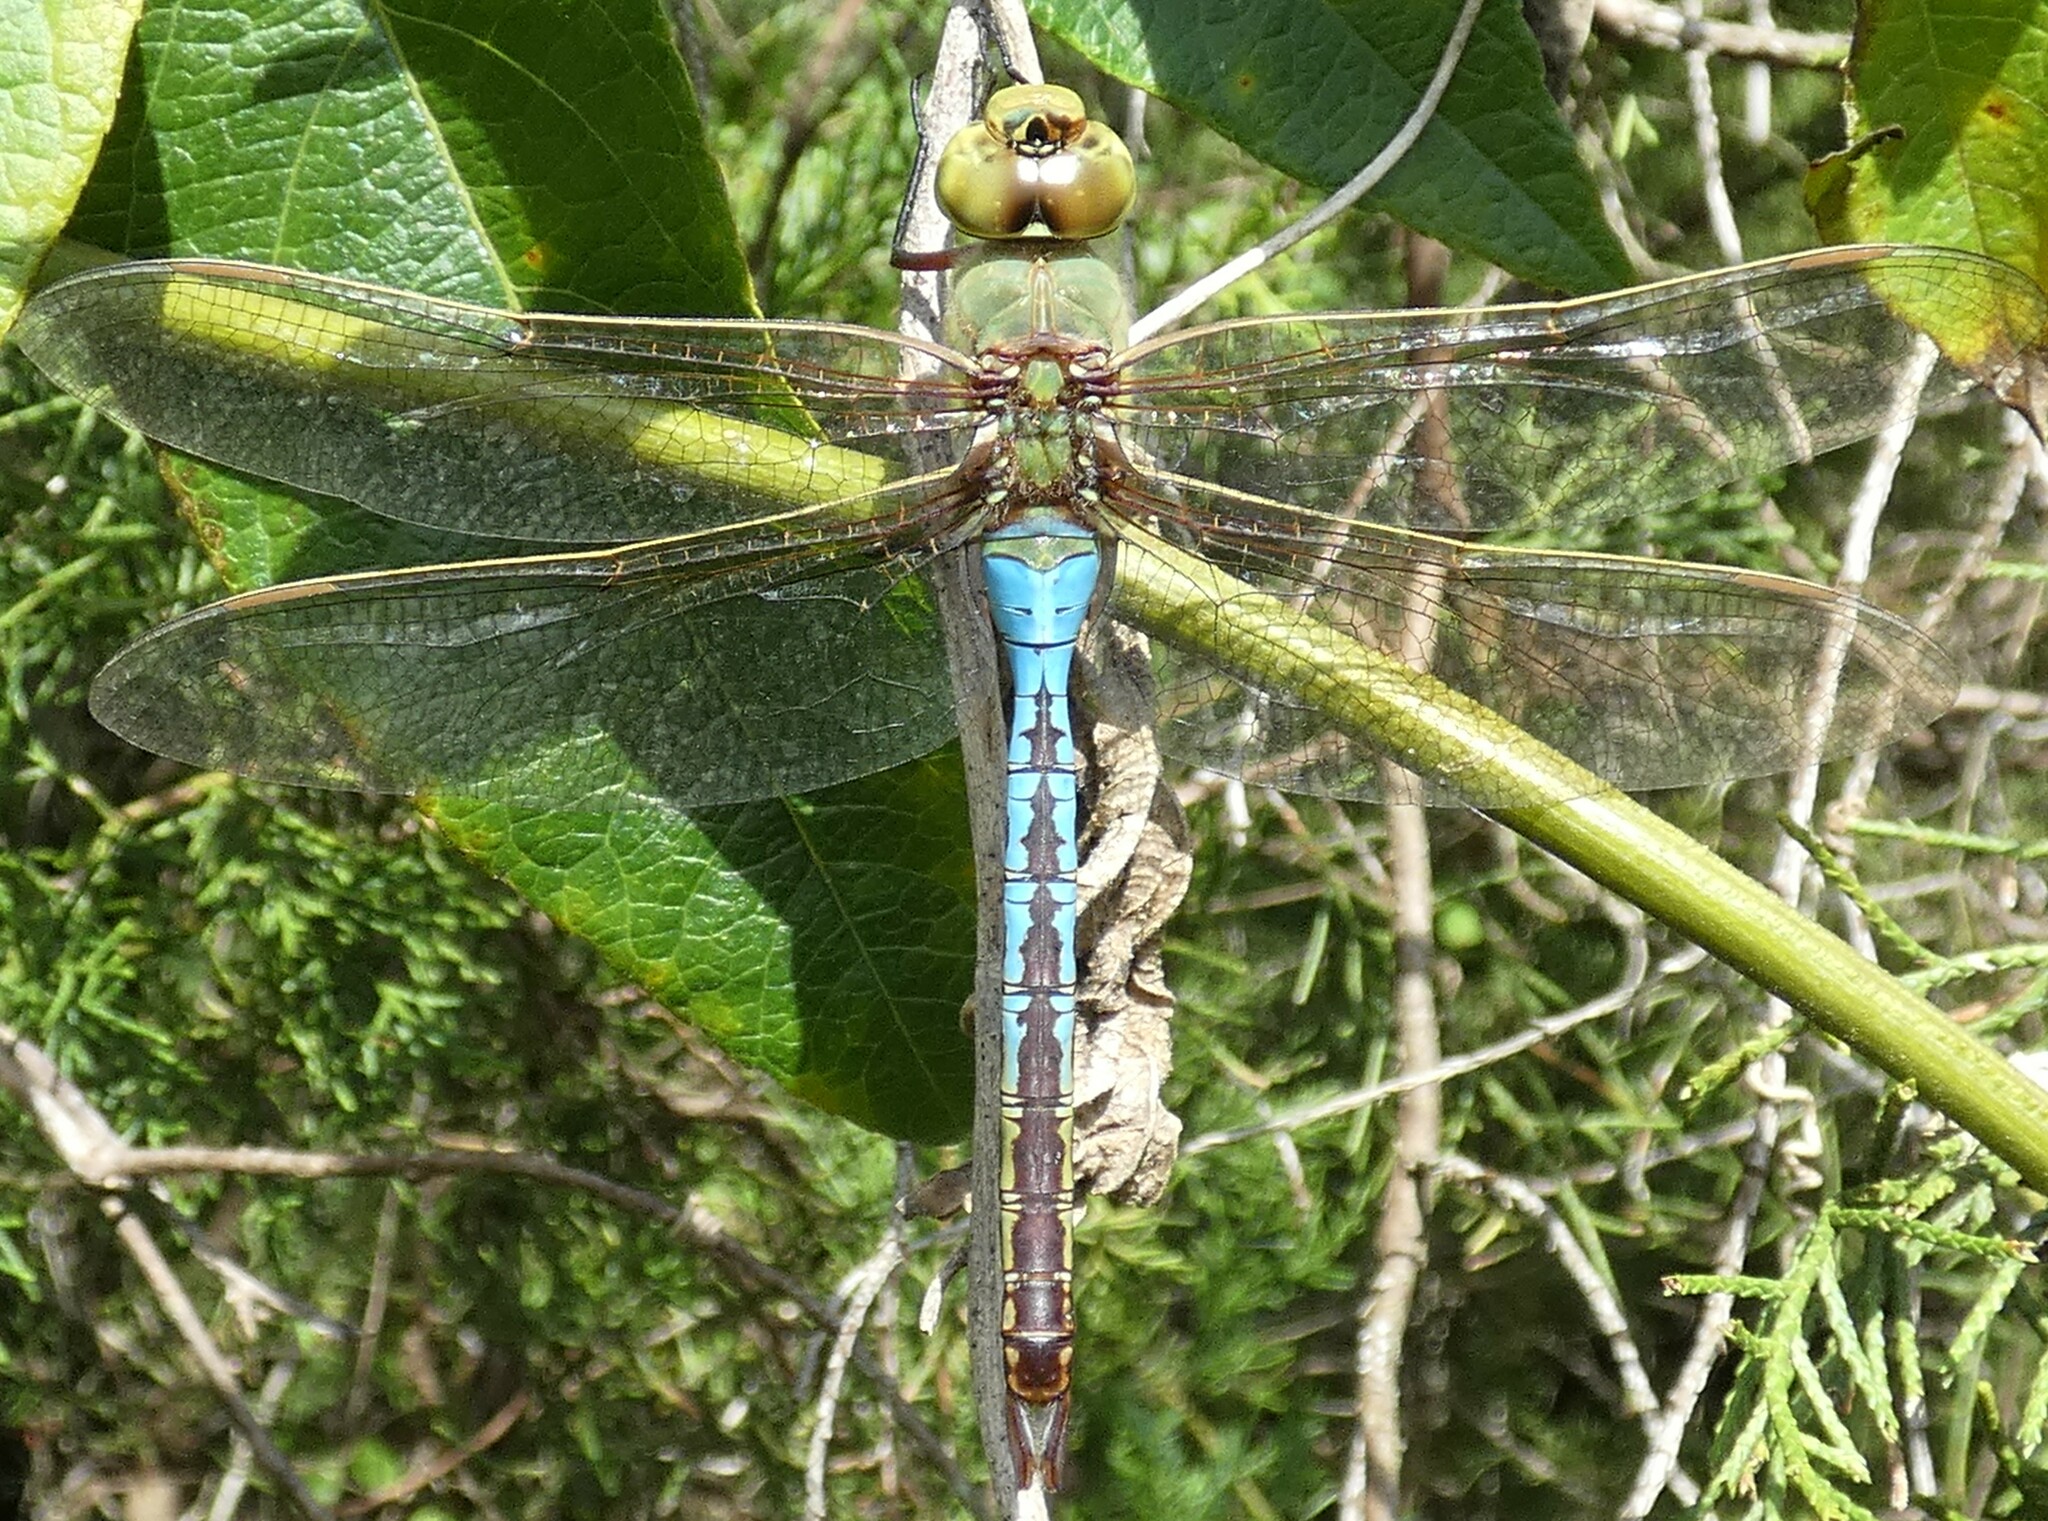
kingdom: Animalia
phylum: Arthropoda
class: Insecta
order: Odonata
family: Aeshnidae
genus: Anax
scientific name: Anax junius
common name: Common green darner
